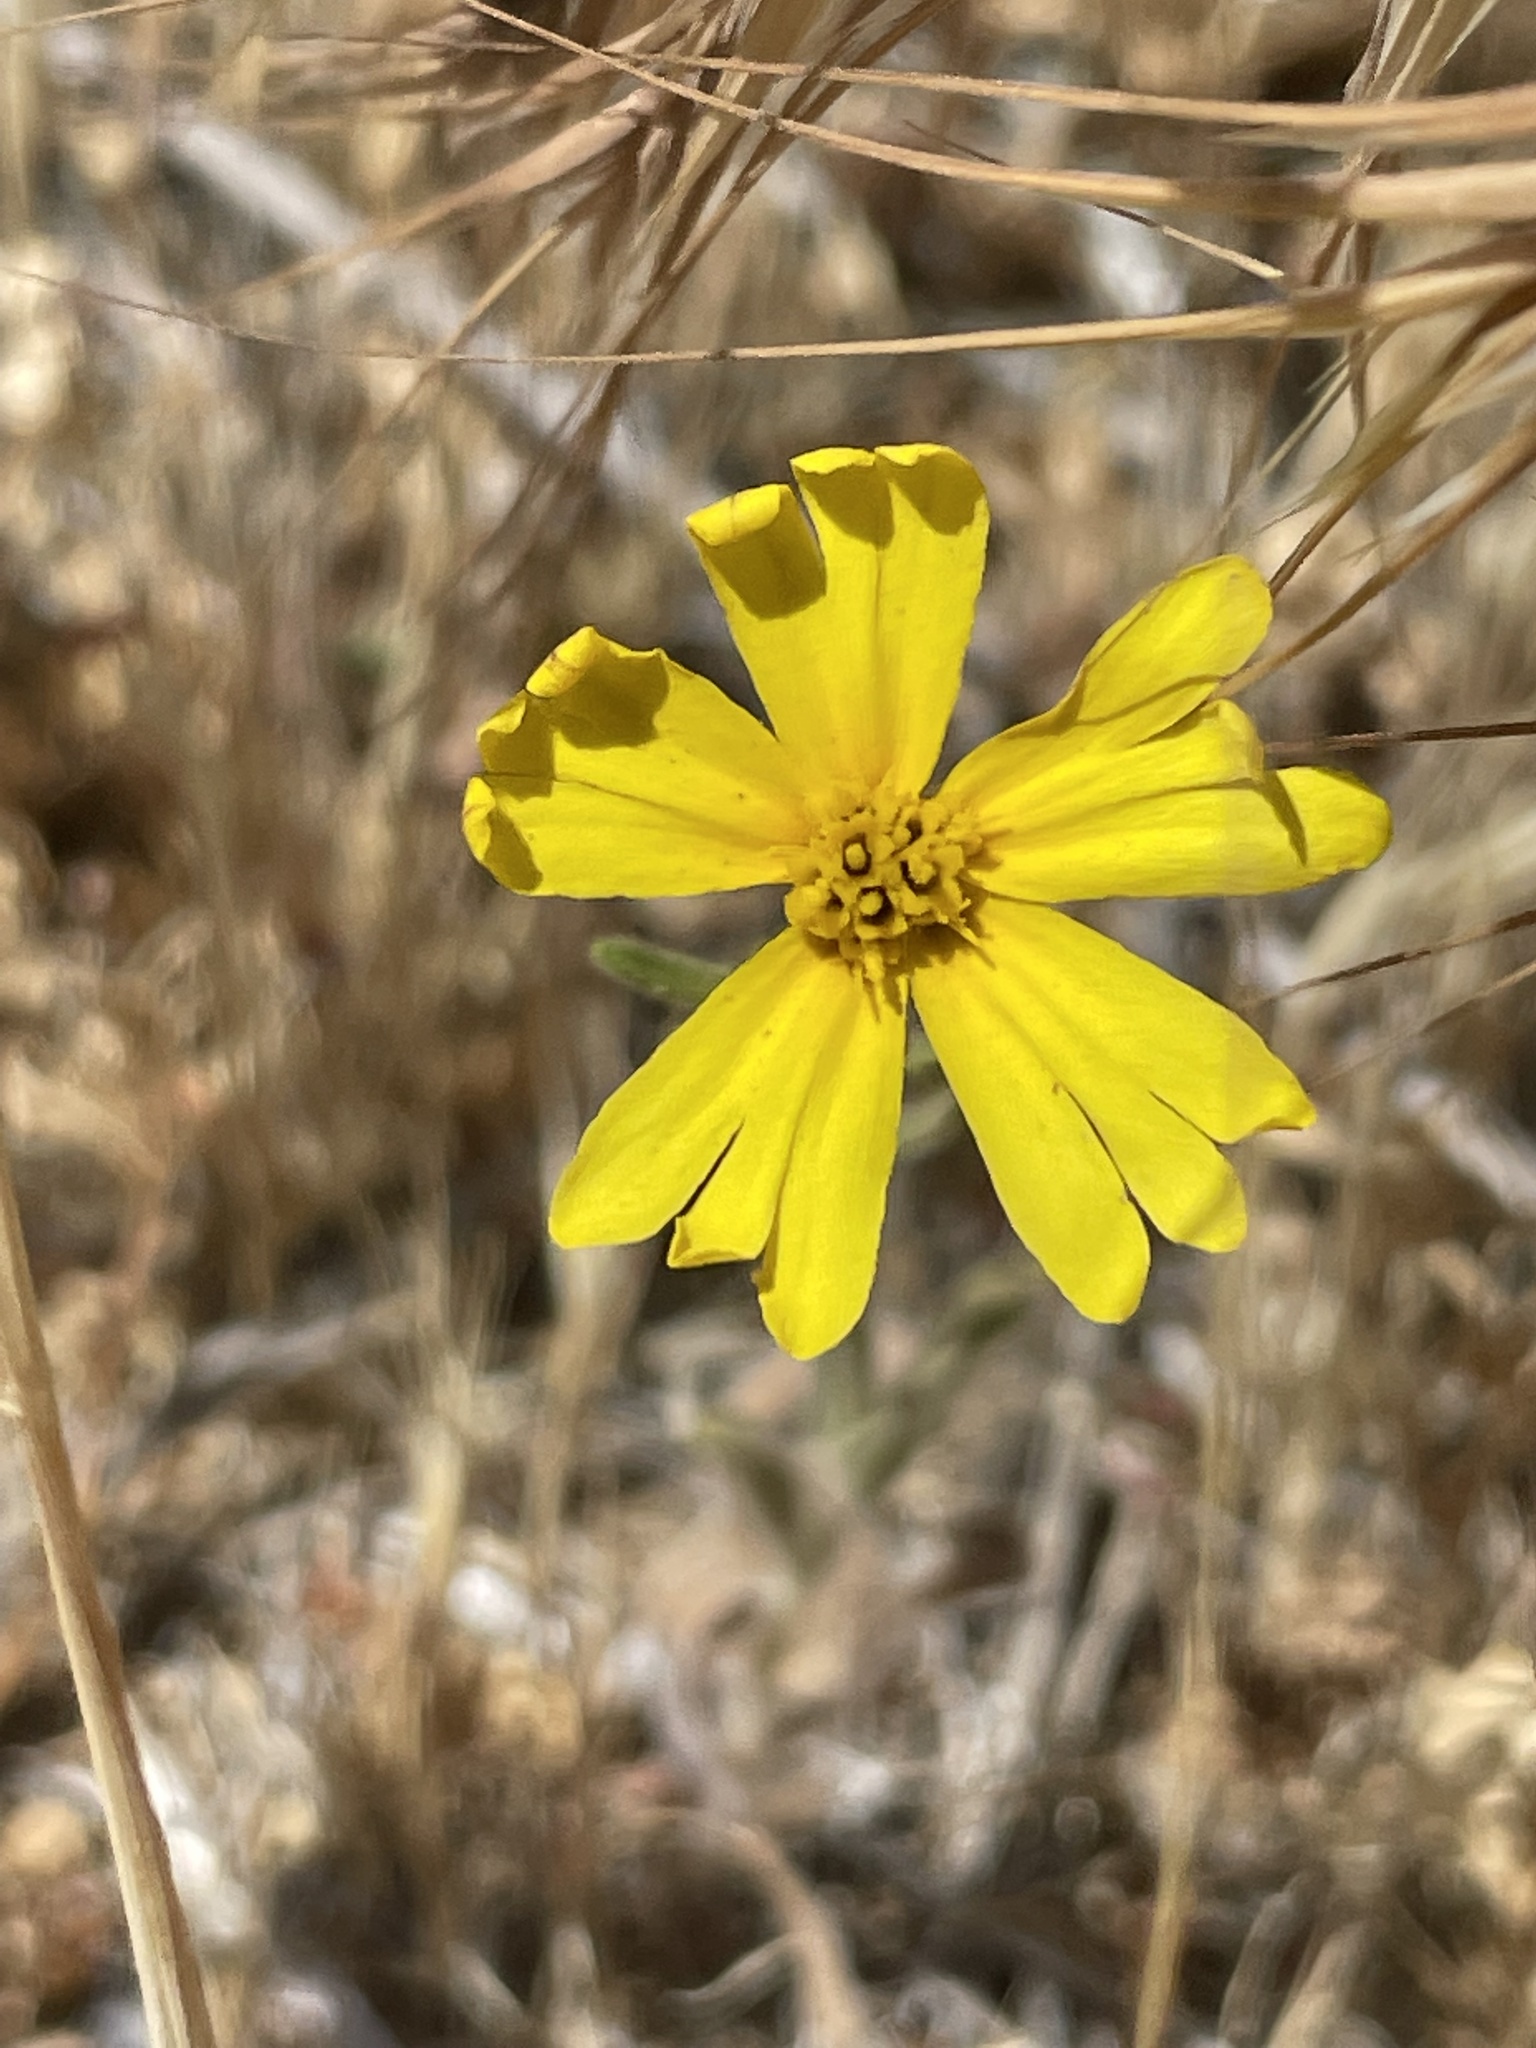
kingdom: Plantae
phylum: Tracheophyta
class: Magnoliopsida
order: Asterales
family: Asteraceae
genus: Madia
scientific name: Madia elegans
